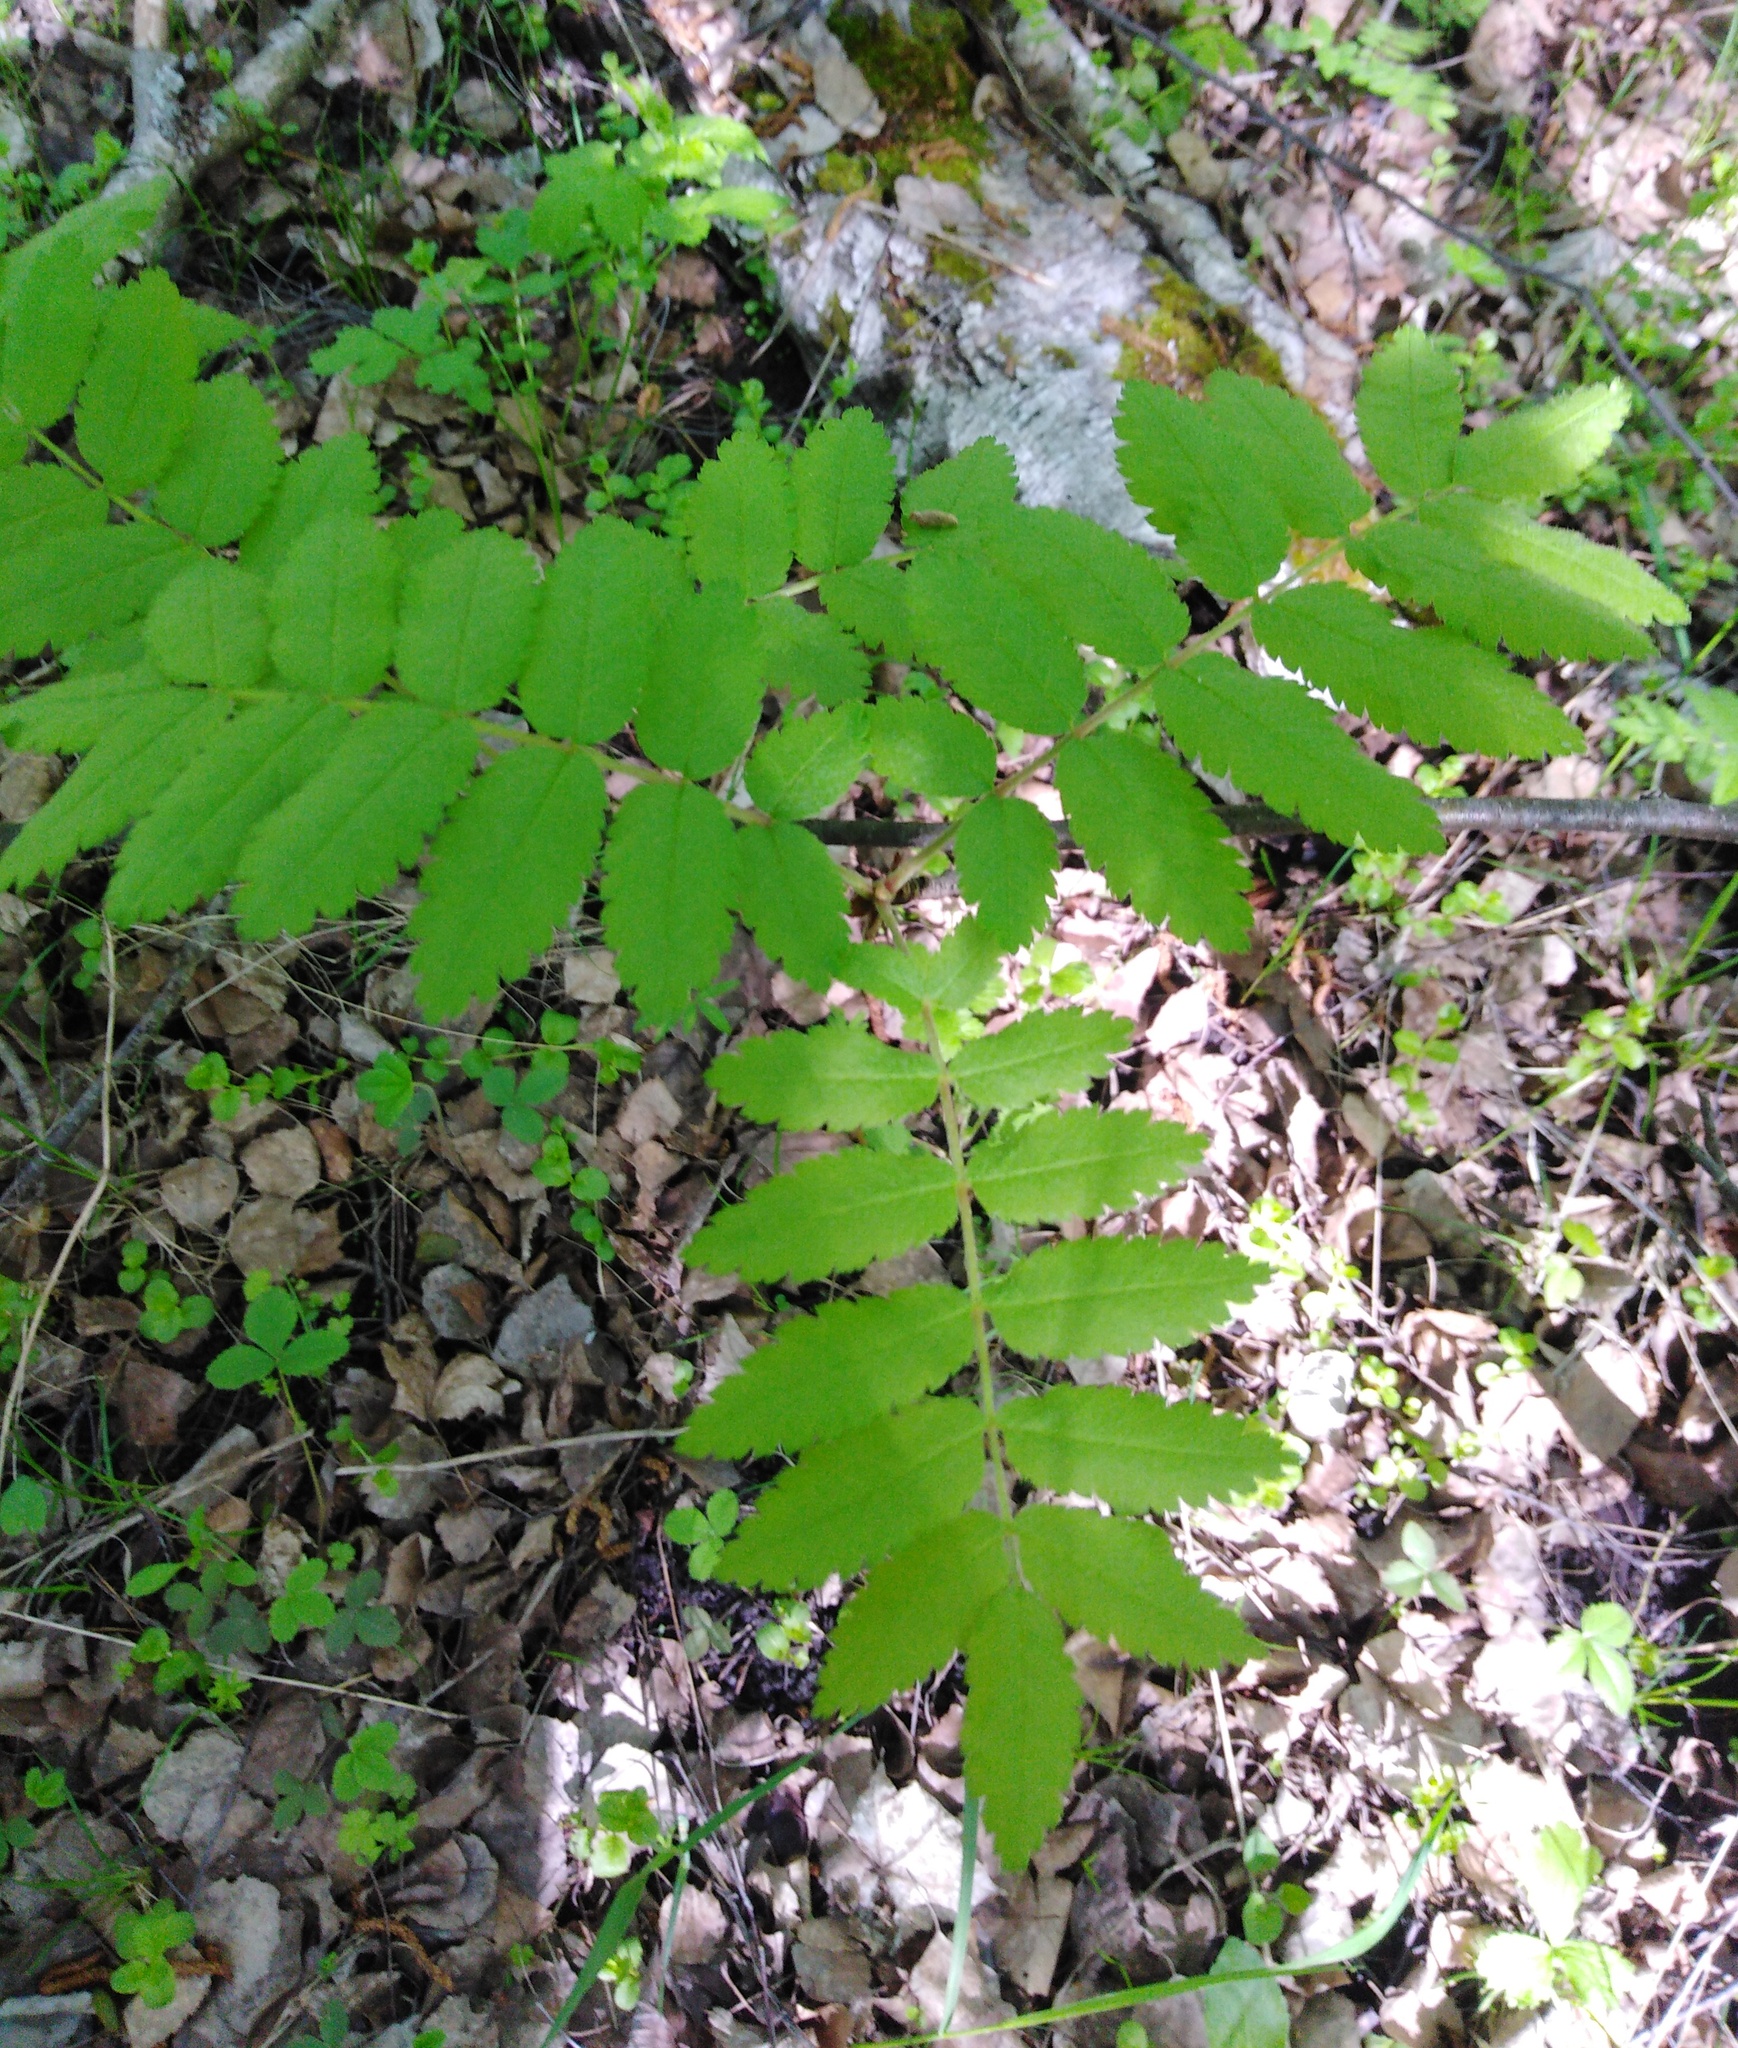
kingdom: Plantae
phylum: Tracheophyta
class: Magnoliopsida
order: Rosales
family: Rosaceae
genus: Sorbus
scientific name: Sorbus aucuparia
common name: Rowan
